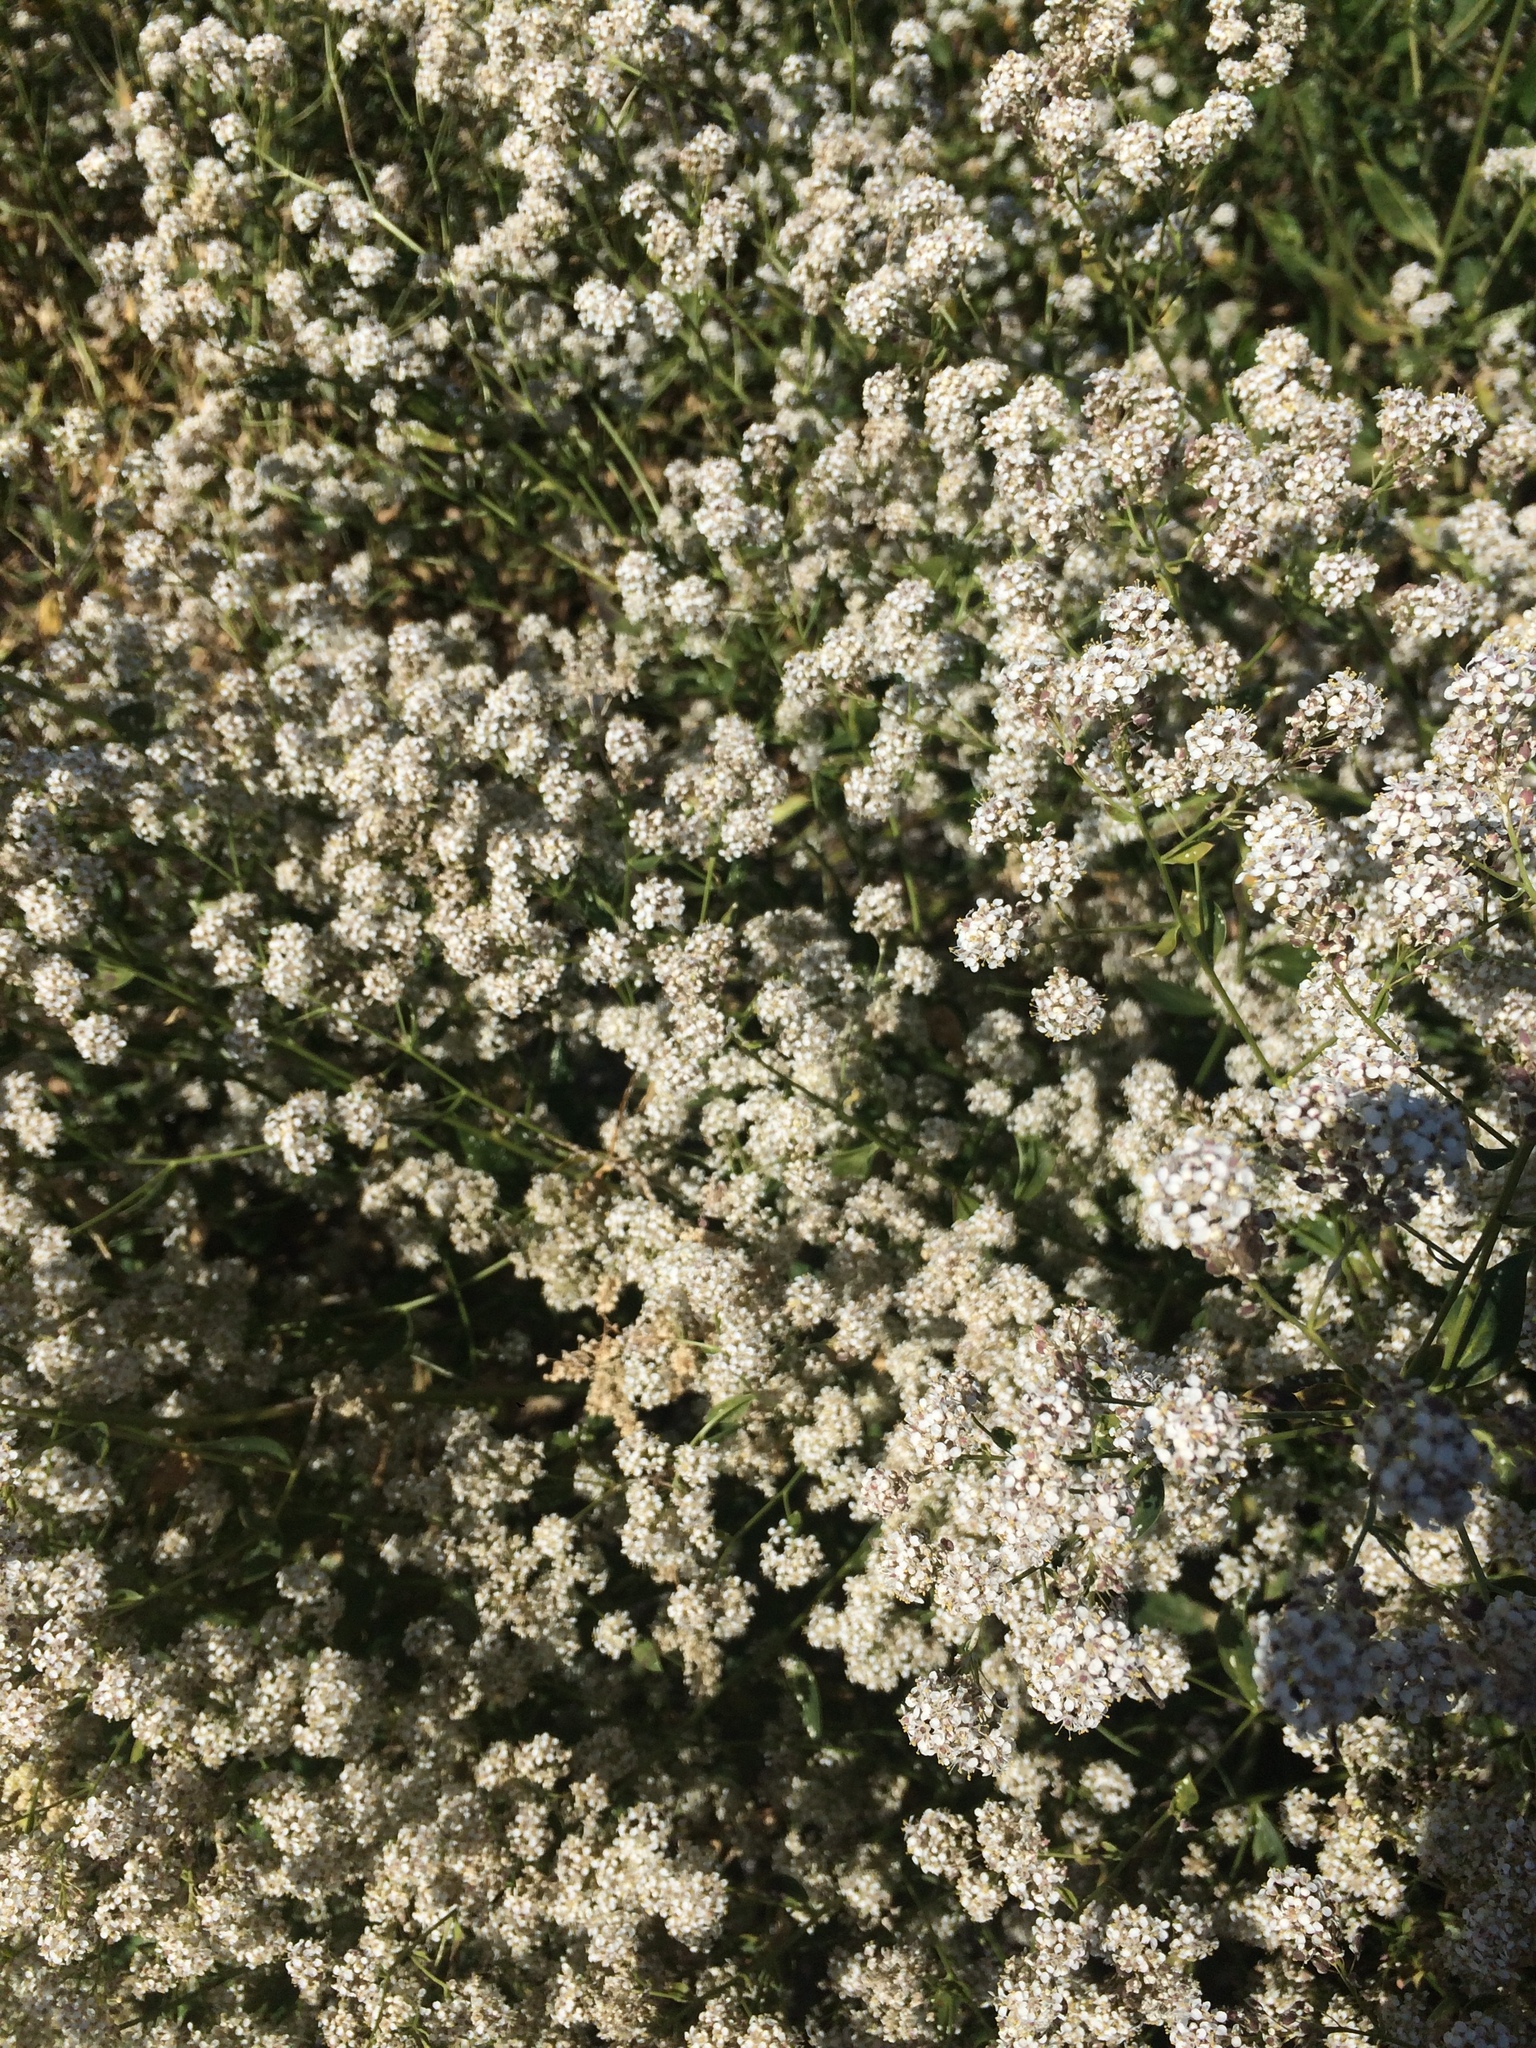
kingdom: Plantae
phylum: Tracheophyta
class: Magnoliopsida
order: Brassicales
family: Brassicaceae
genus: Lepidium
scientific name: Lepidium latifolium
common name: Dittander
